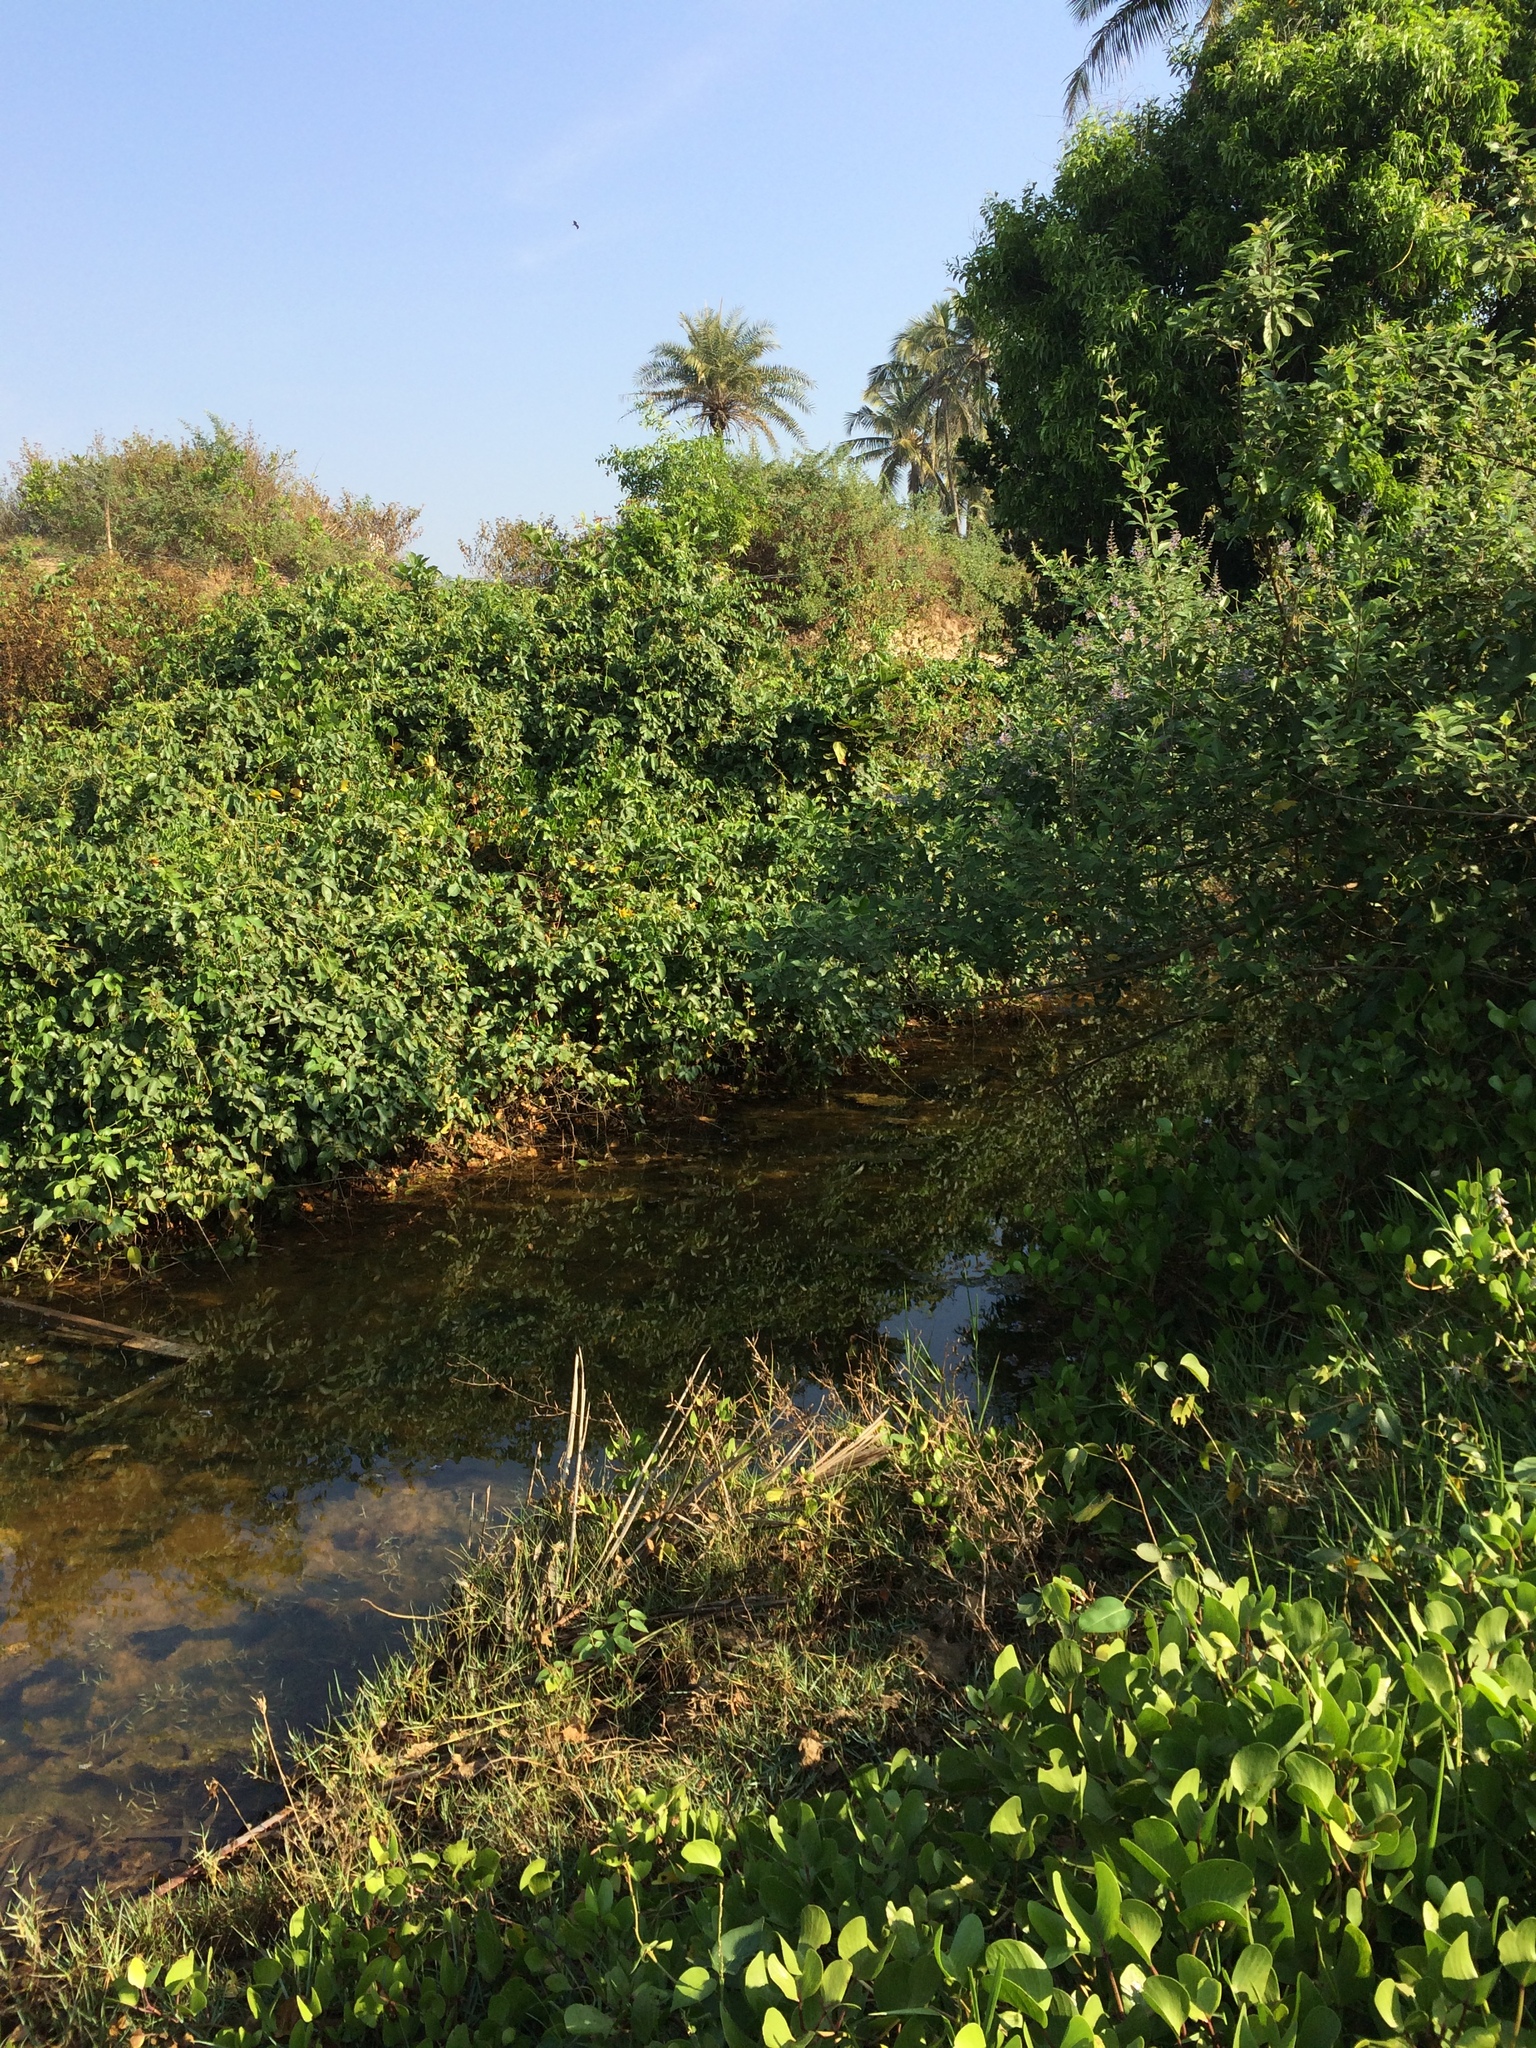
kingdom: Plantae
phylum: Tracheophyta
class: Magnoliopsida
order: Solanales
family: Convolvulaceae
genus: Ipomoea
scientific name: Ipomoea pes-caprae
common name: Beach morning glory
